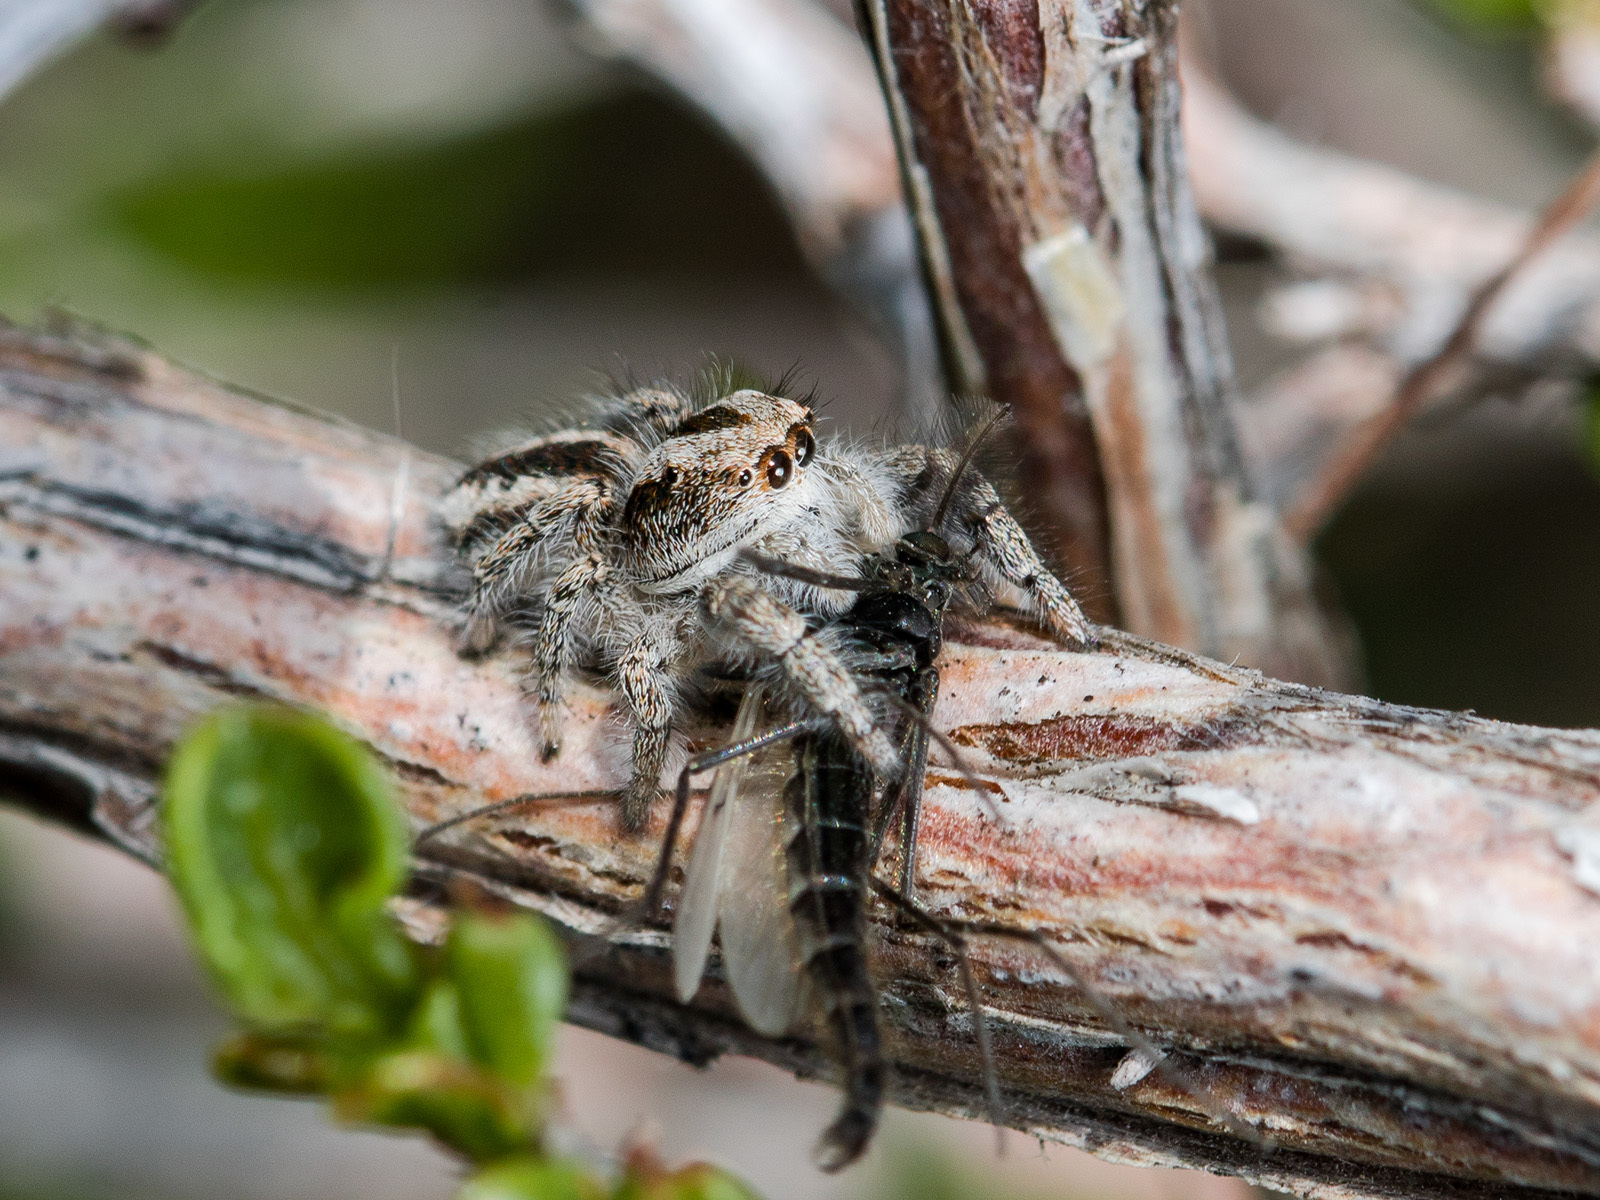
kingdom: Animalia
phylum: Arthropoda
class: Arachnida
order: Araneae
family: Salticidae
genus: Pseudomogrus
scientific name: Pseudomogrus vittatus
